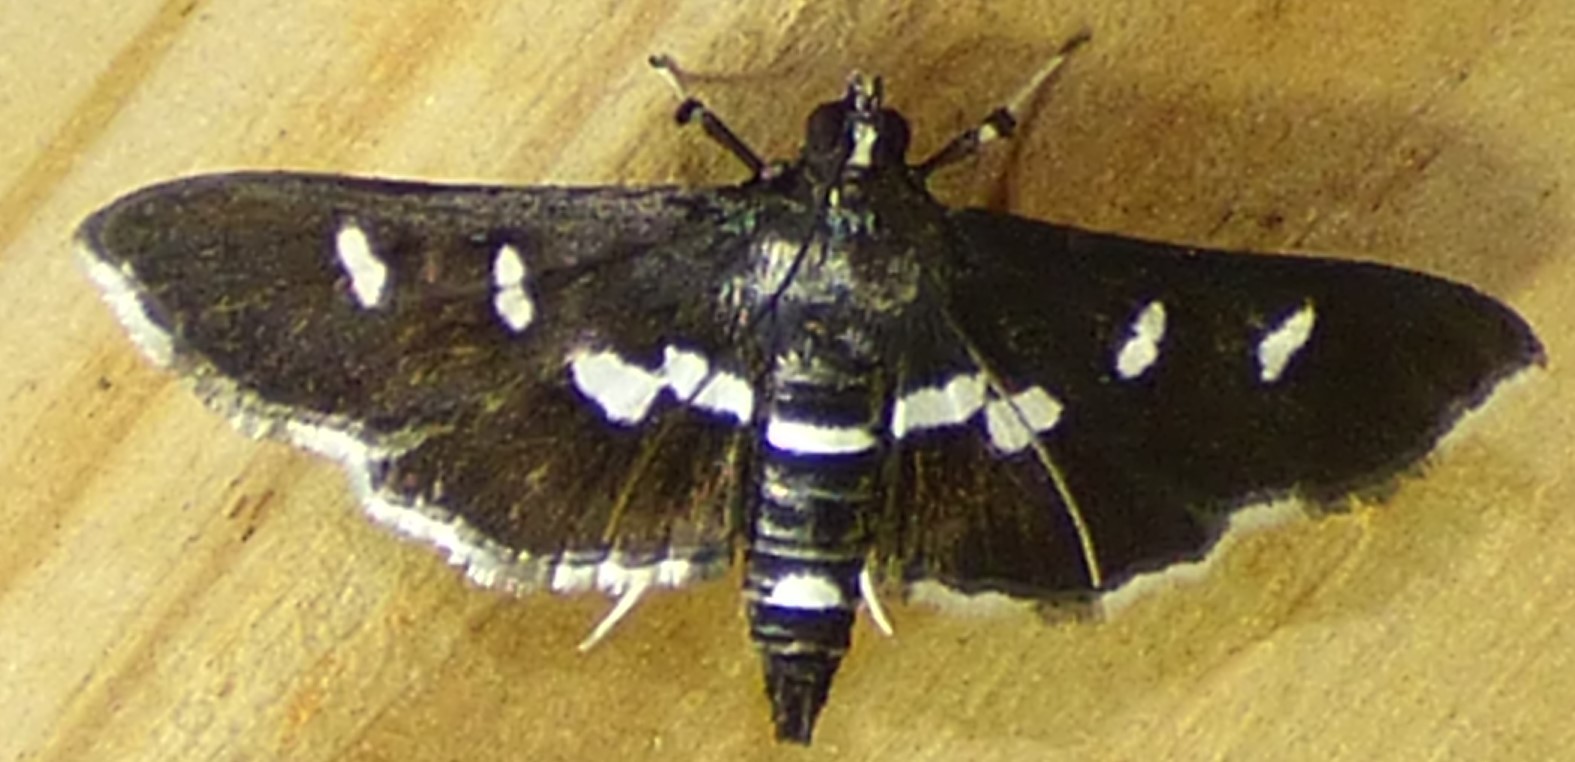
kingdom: Animalia
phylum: Arthropoda
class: Insecta
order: Lepidoptera
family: Crambidae
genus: Desmia
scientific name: Desmia funeralis
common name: Grape leaf folder moth
